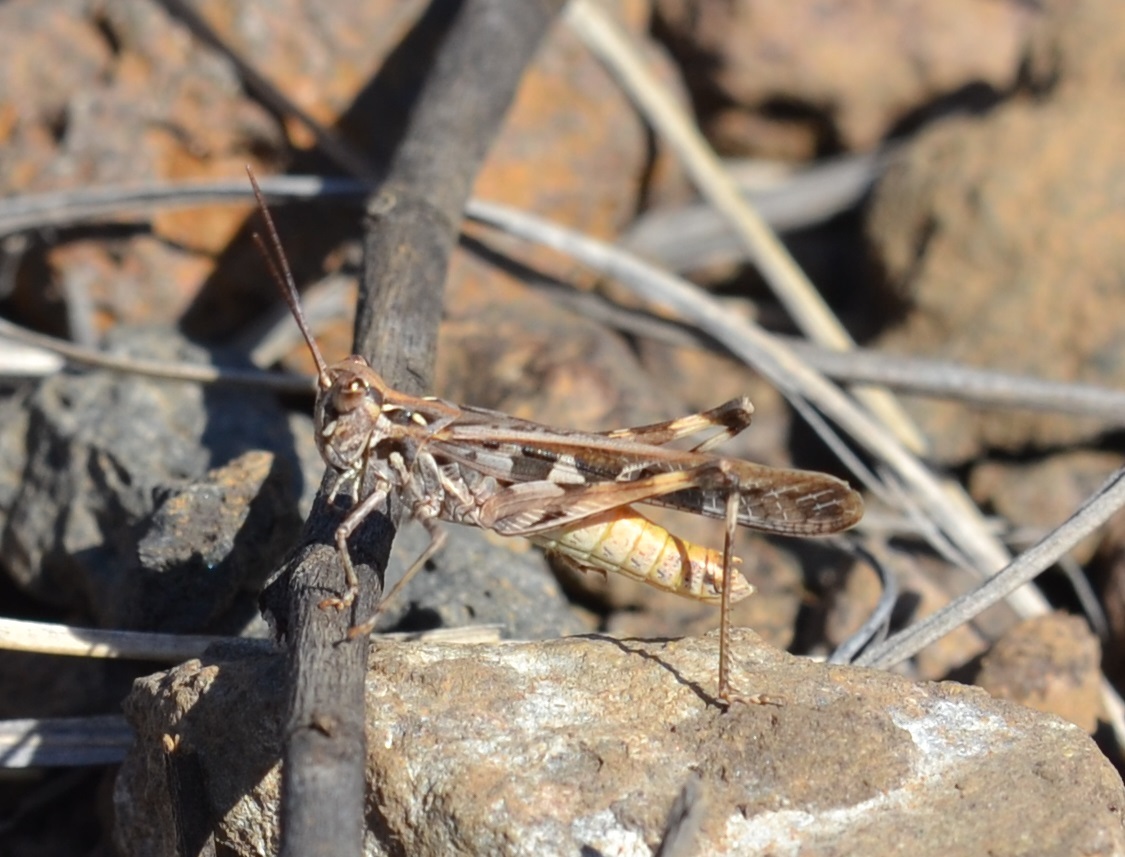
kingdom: Animalia
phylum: Arthropoda
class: Insecta
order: Orthoptera
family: Acrididae
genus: Oedaleus
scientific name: Oedaleus abruptus
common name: Grasshopper
